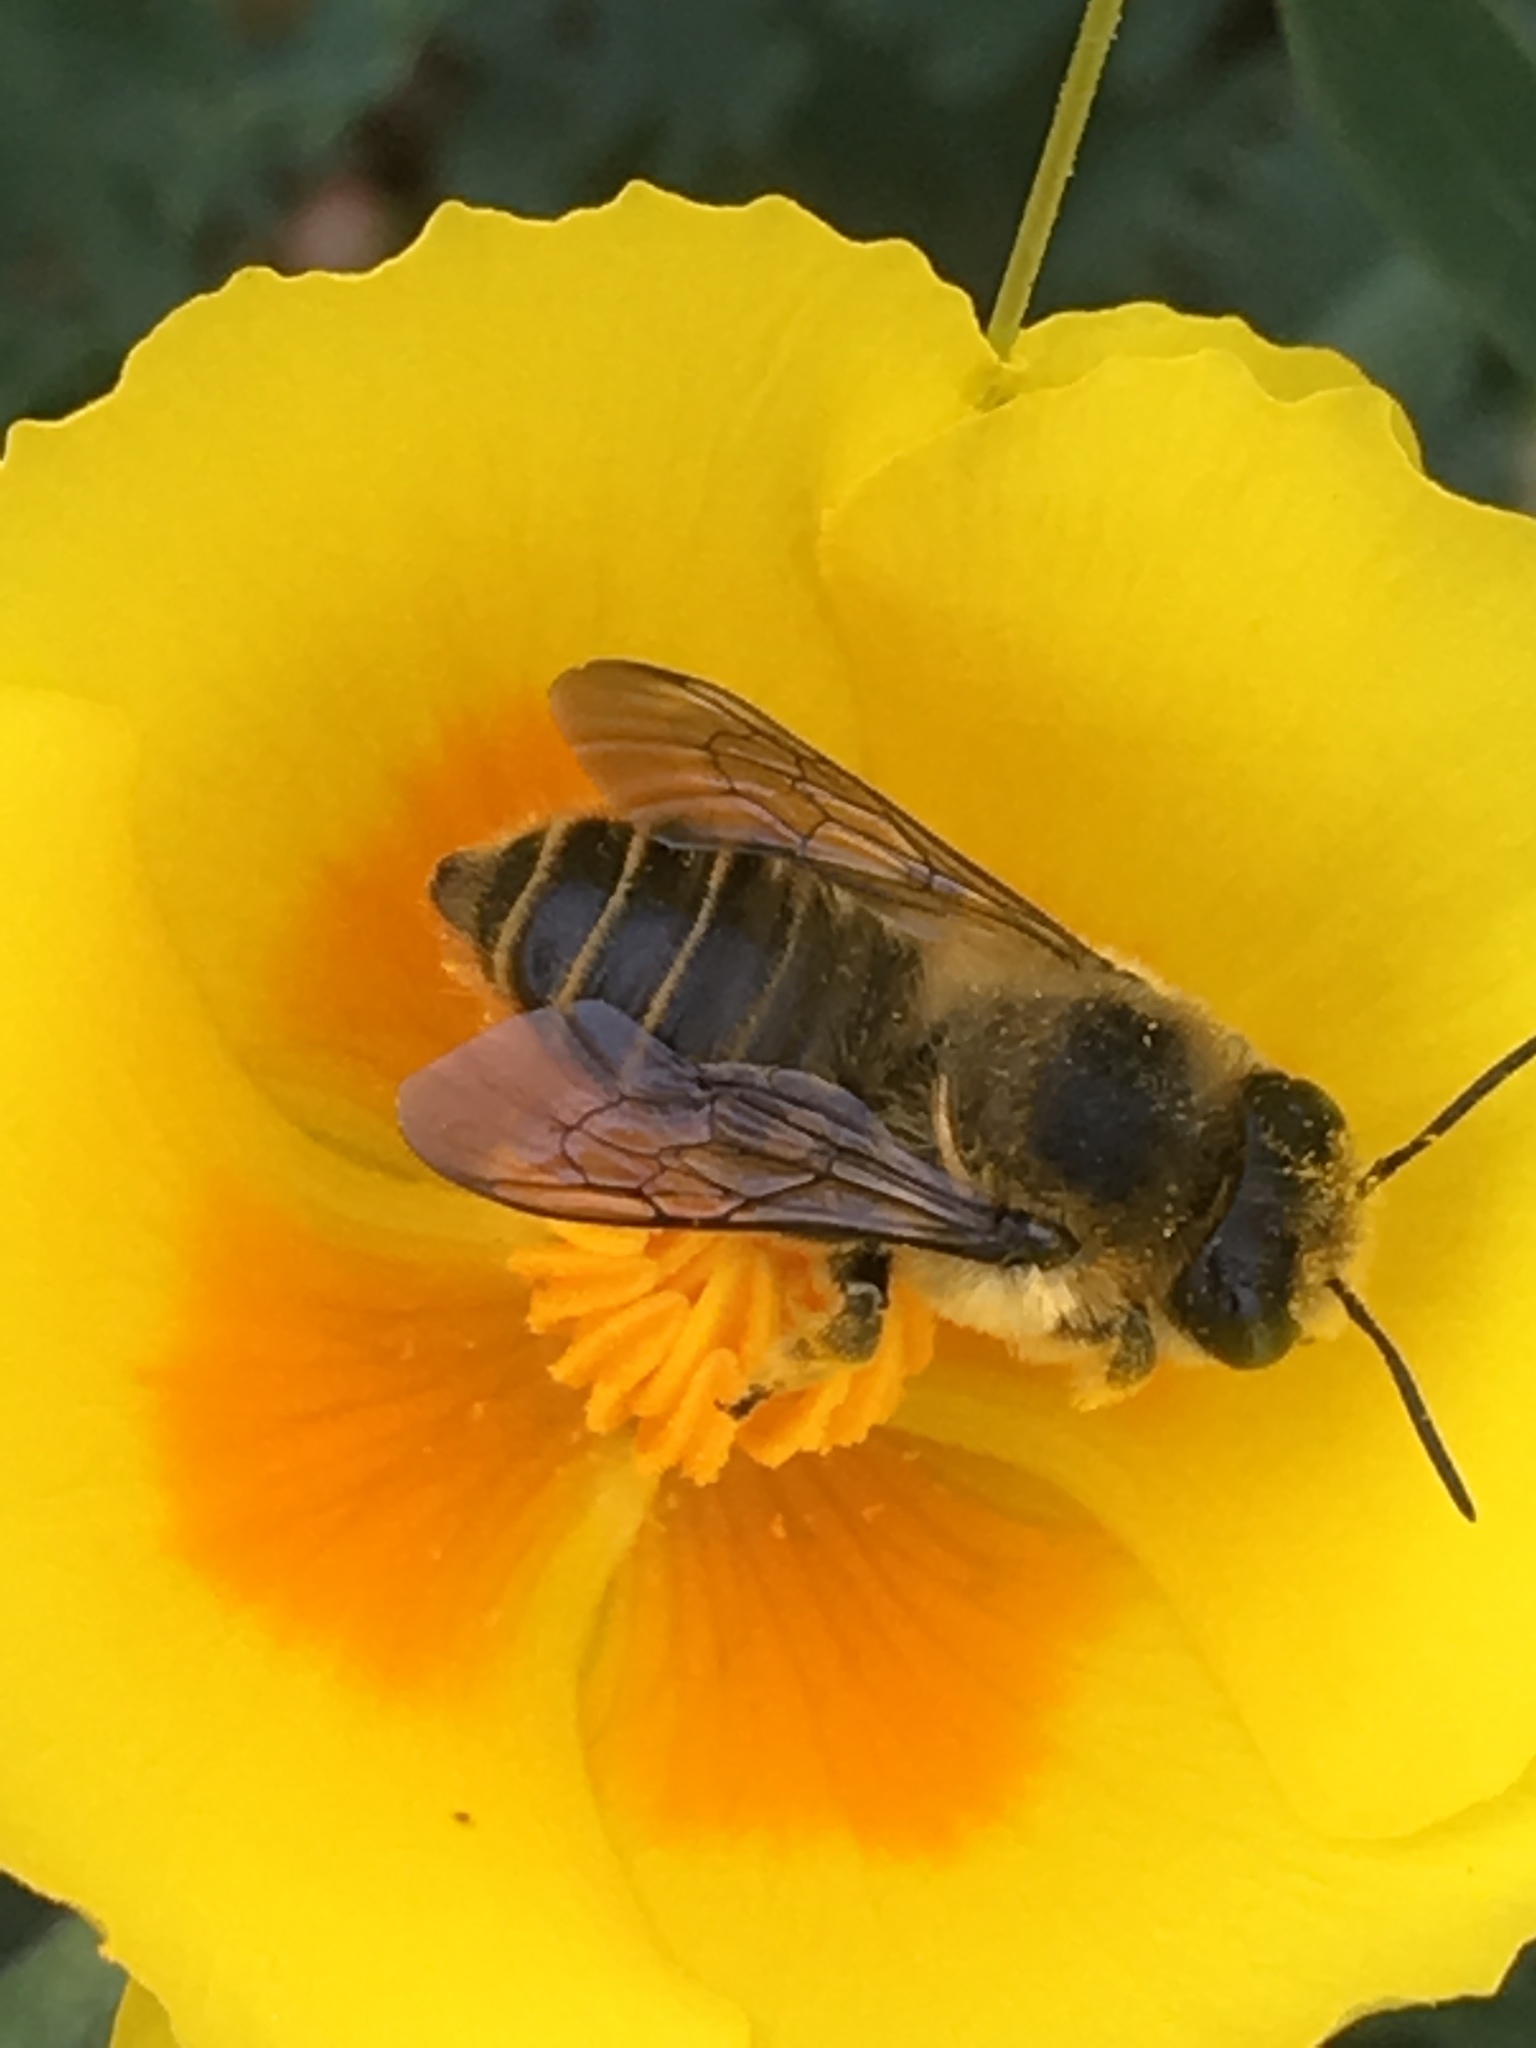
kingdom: Animalia
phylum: Arthropoda
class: Insecta
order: Hymenoptera
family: Megachilidae
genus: Megachile
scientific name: Megachile perihirta
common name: Western leafcutter
